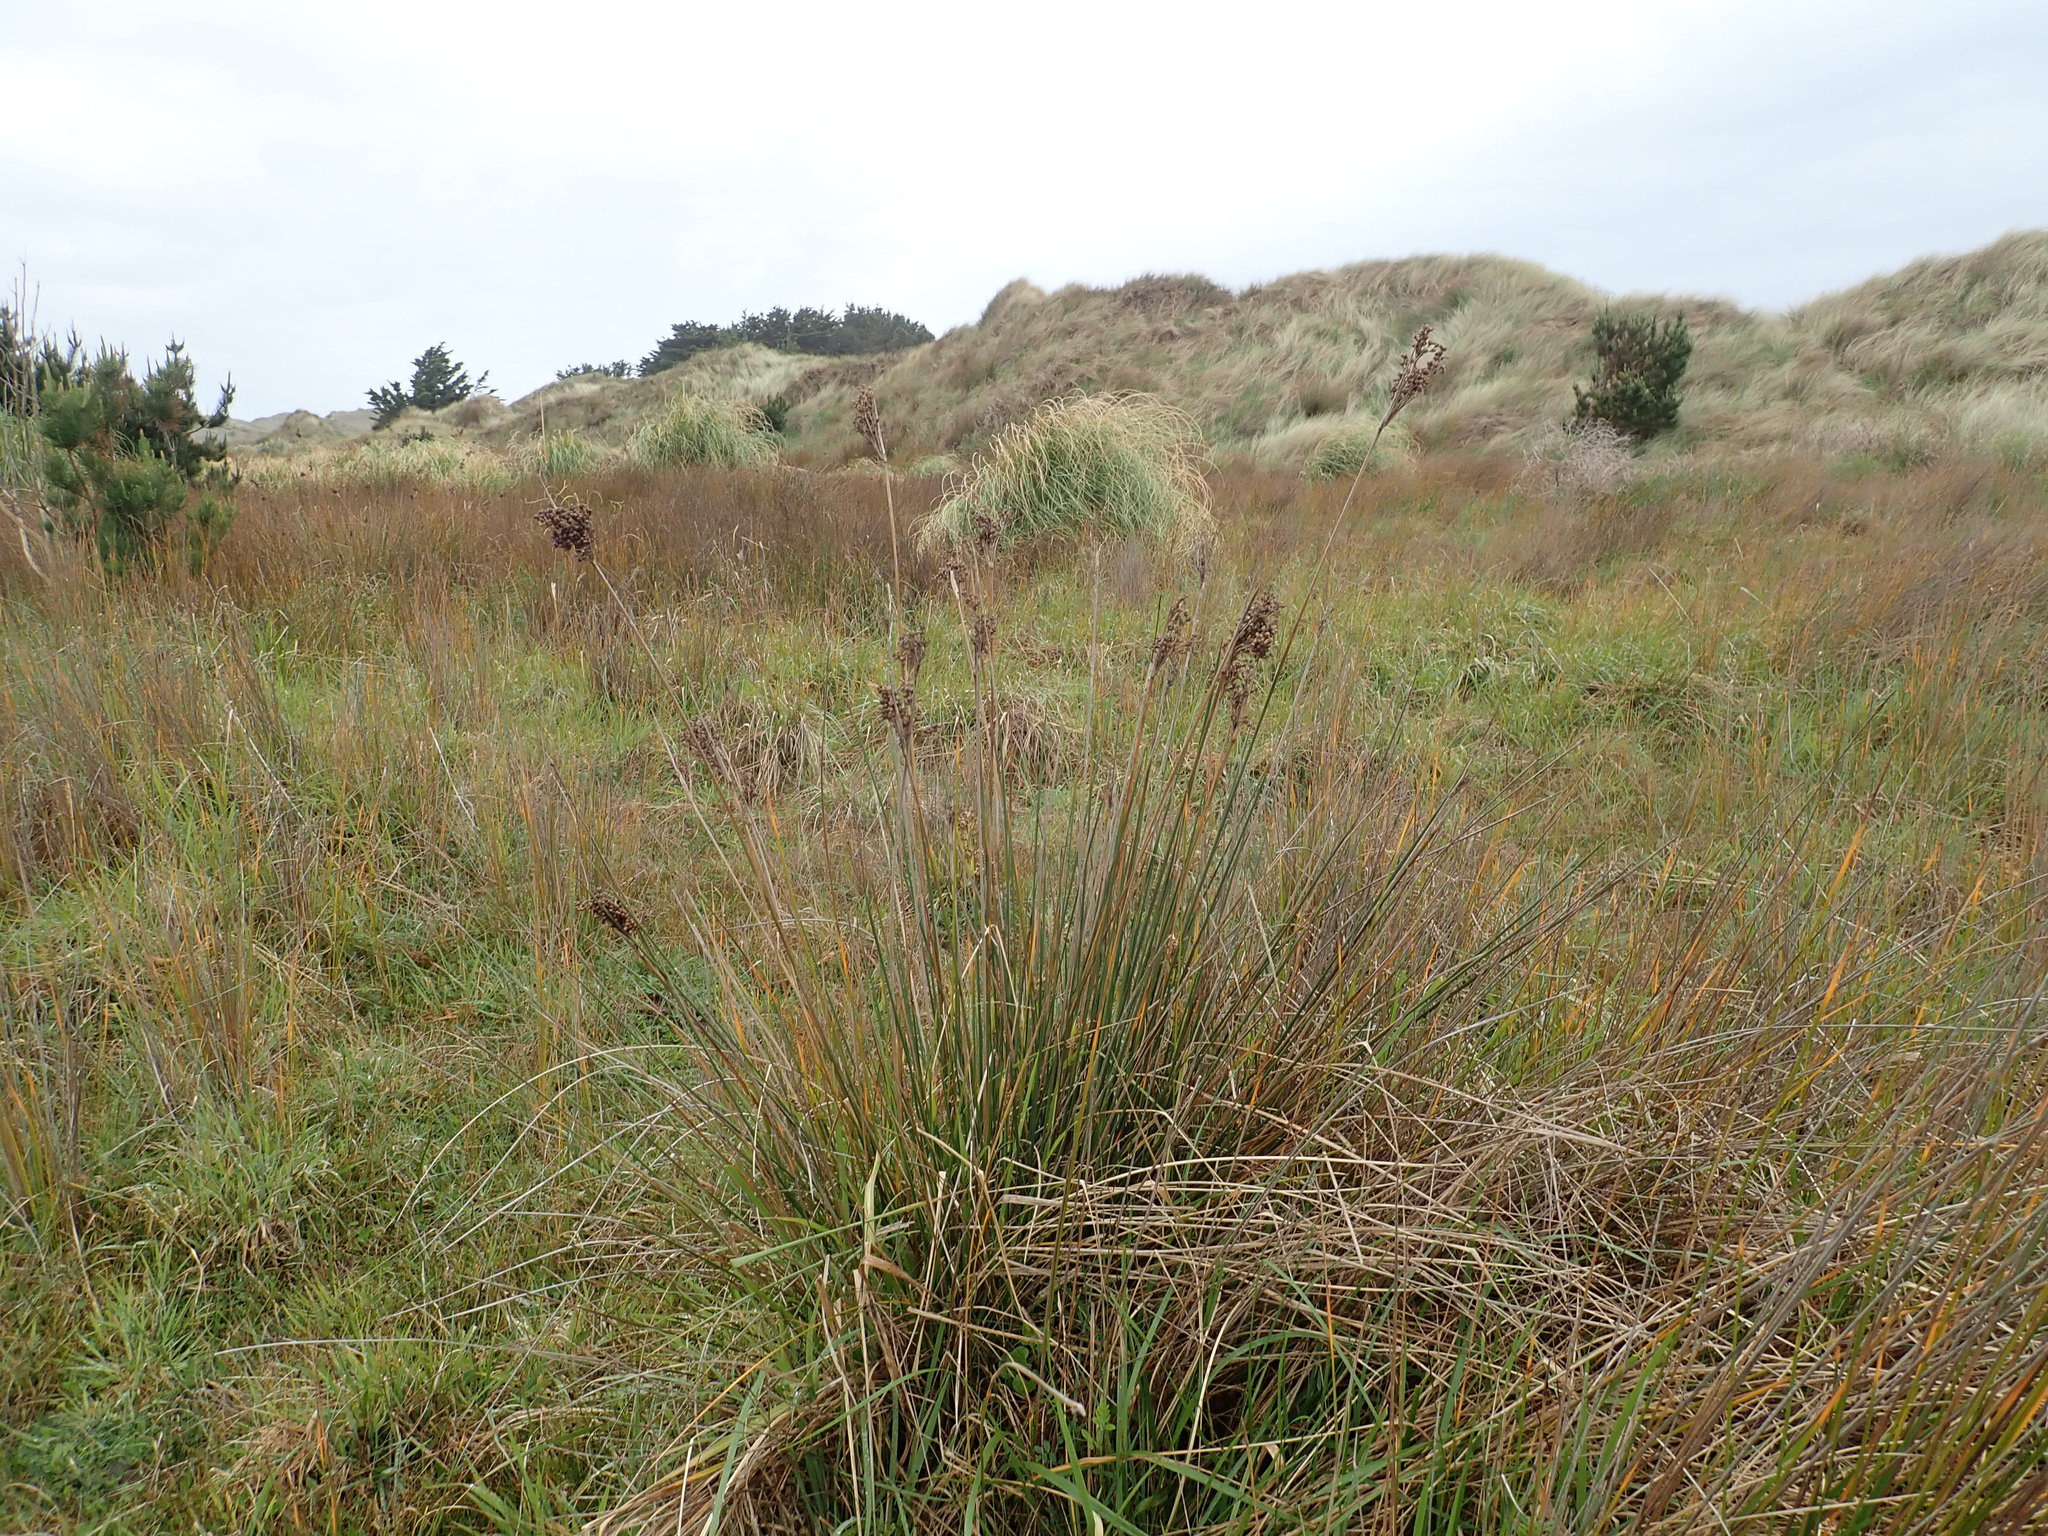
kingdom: Plantae
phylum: Tracheophyta
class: Liliopsida
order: Poales
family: Juncaceae
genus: Juncus
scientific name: Juncus acutus
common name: Sharp rush
